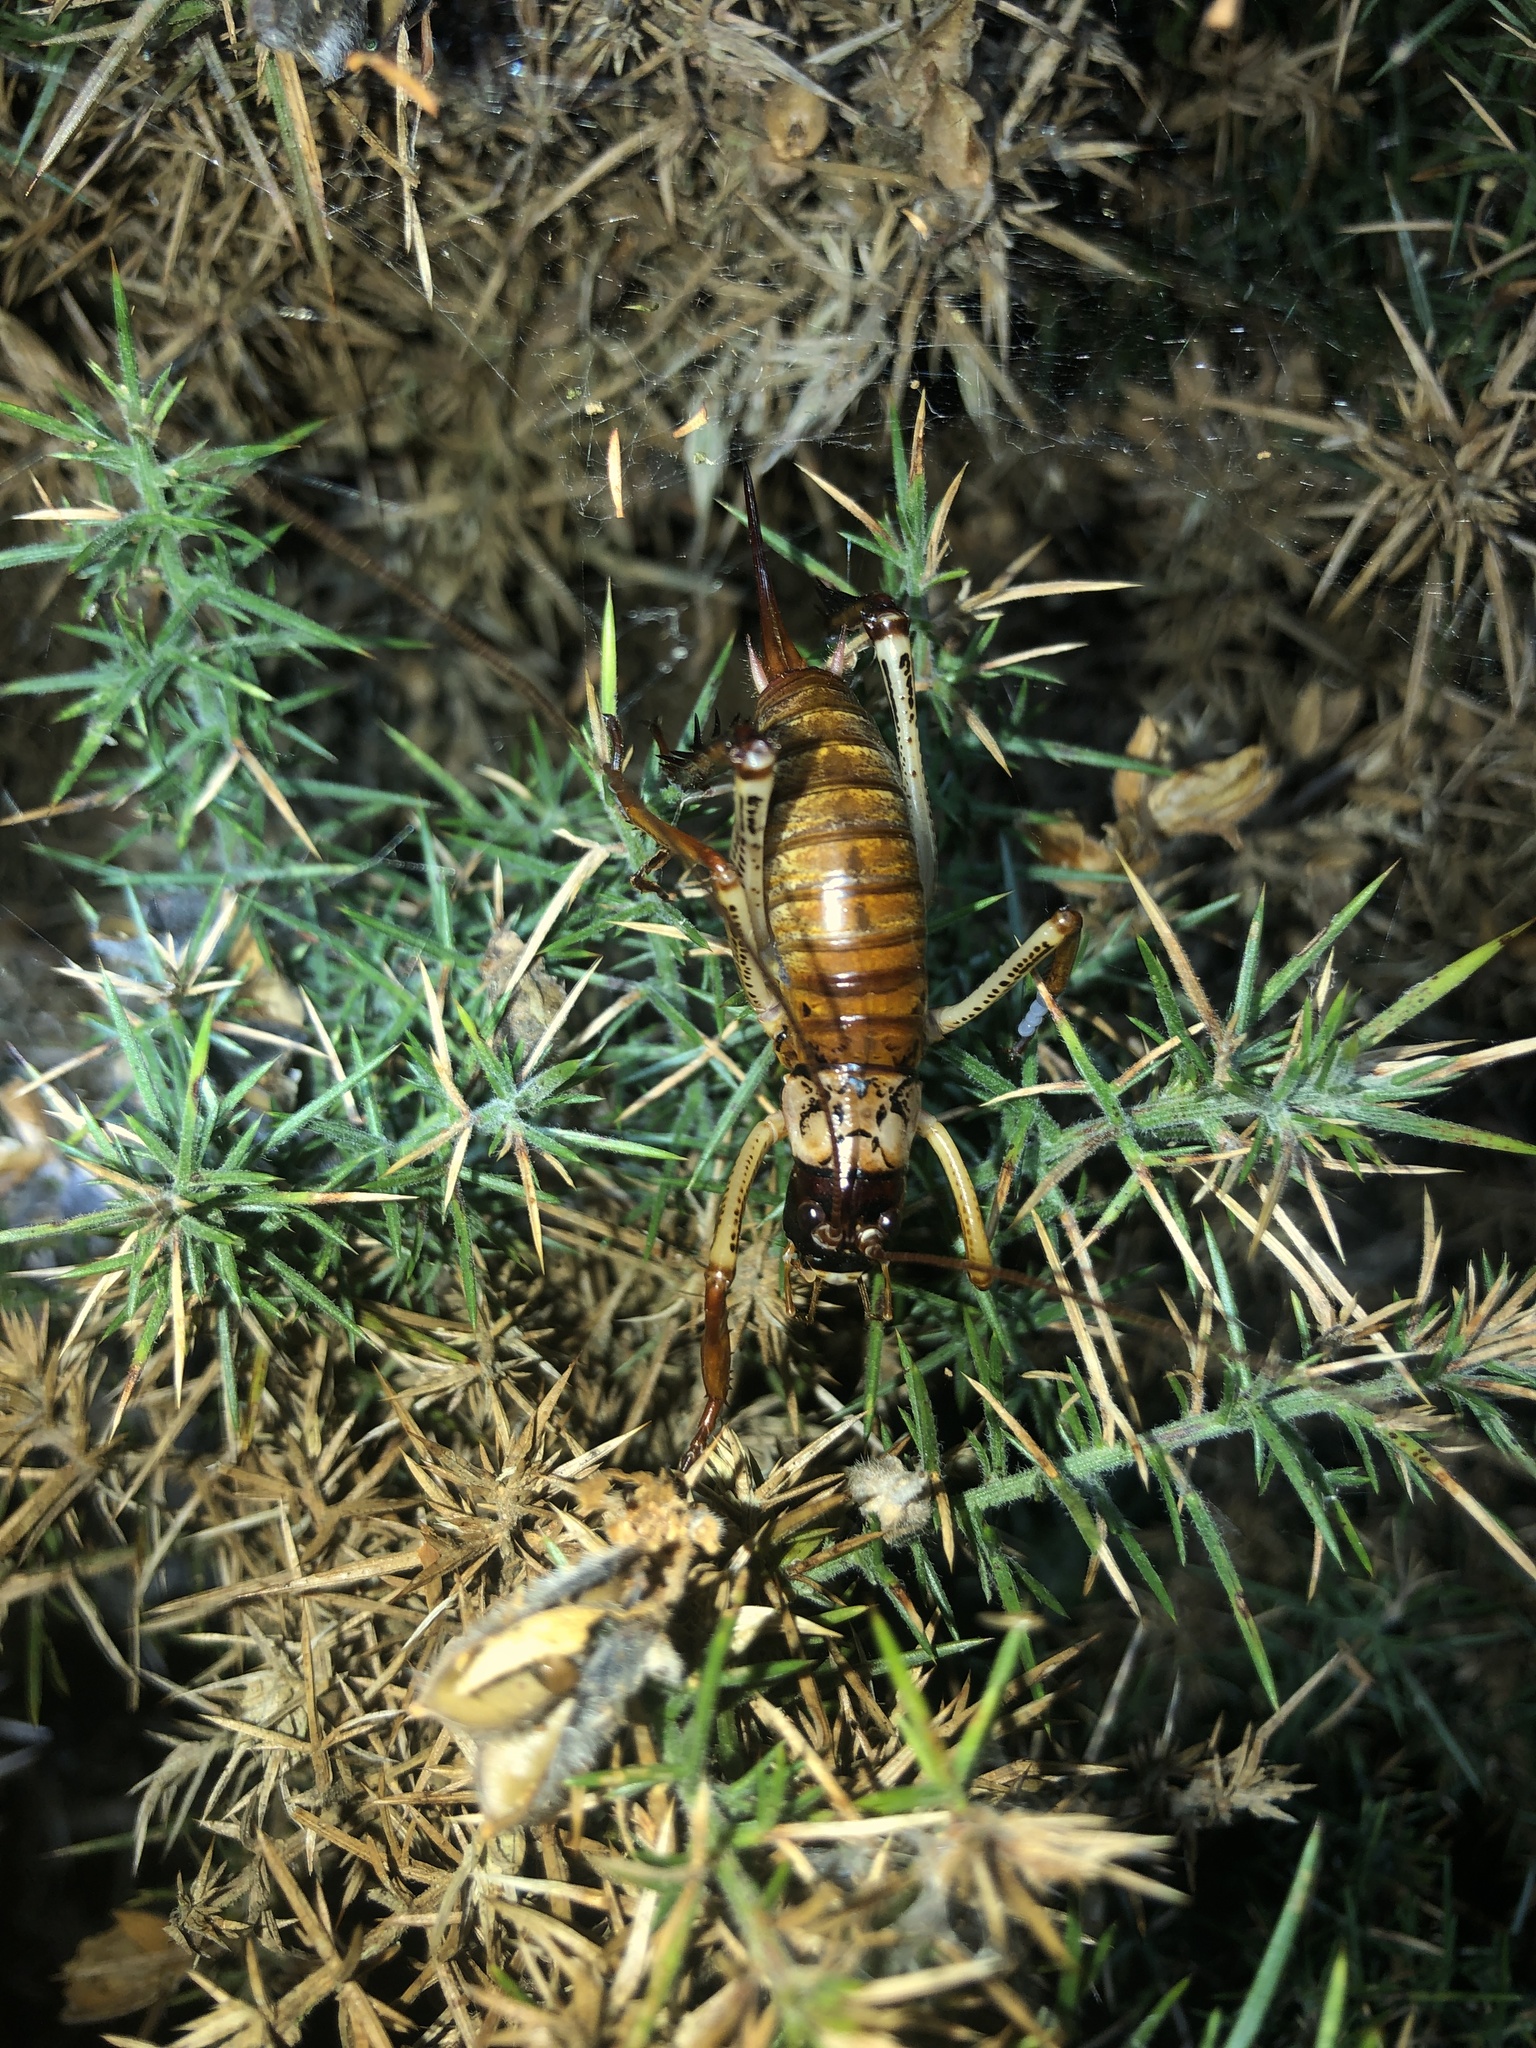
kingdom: Animalia
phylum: Arthropoda
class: Insecta
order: Orthoptera
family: Anostostomatidae
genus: Hemideina
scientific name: Hemideina thoracica
